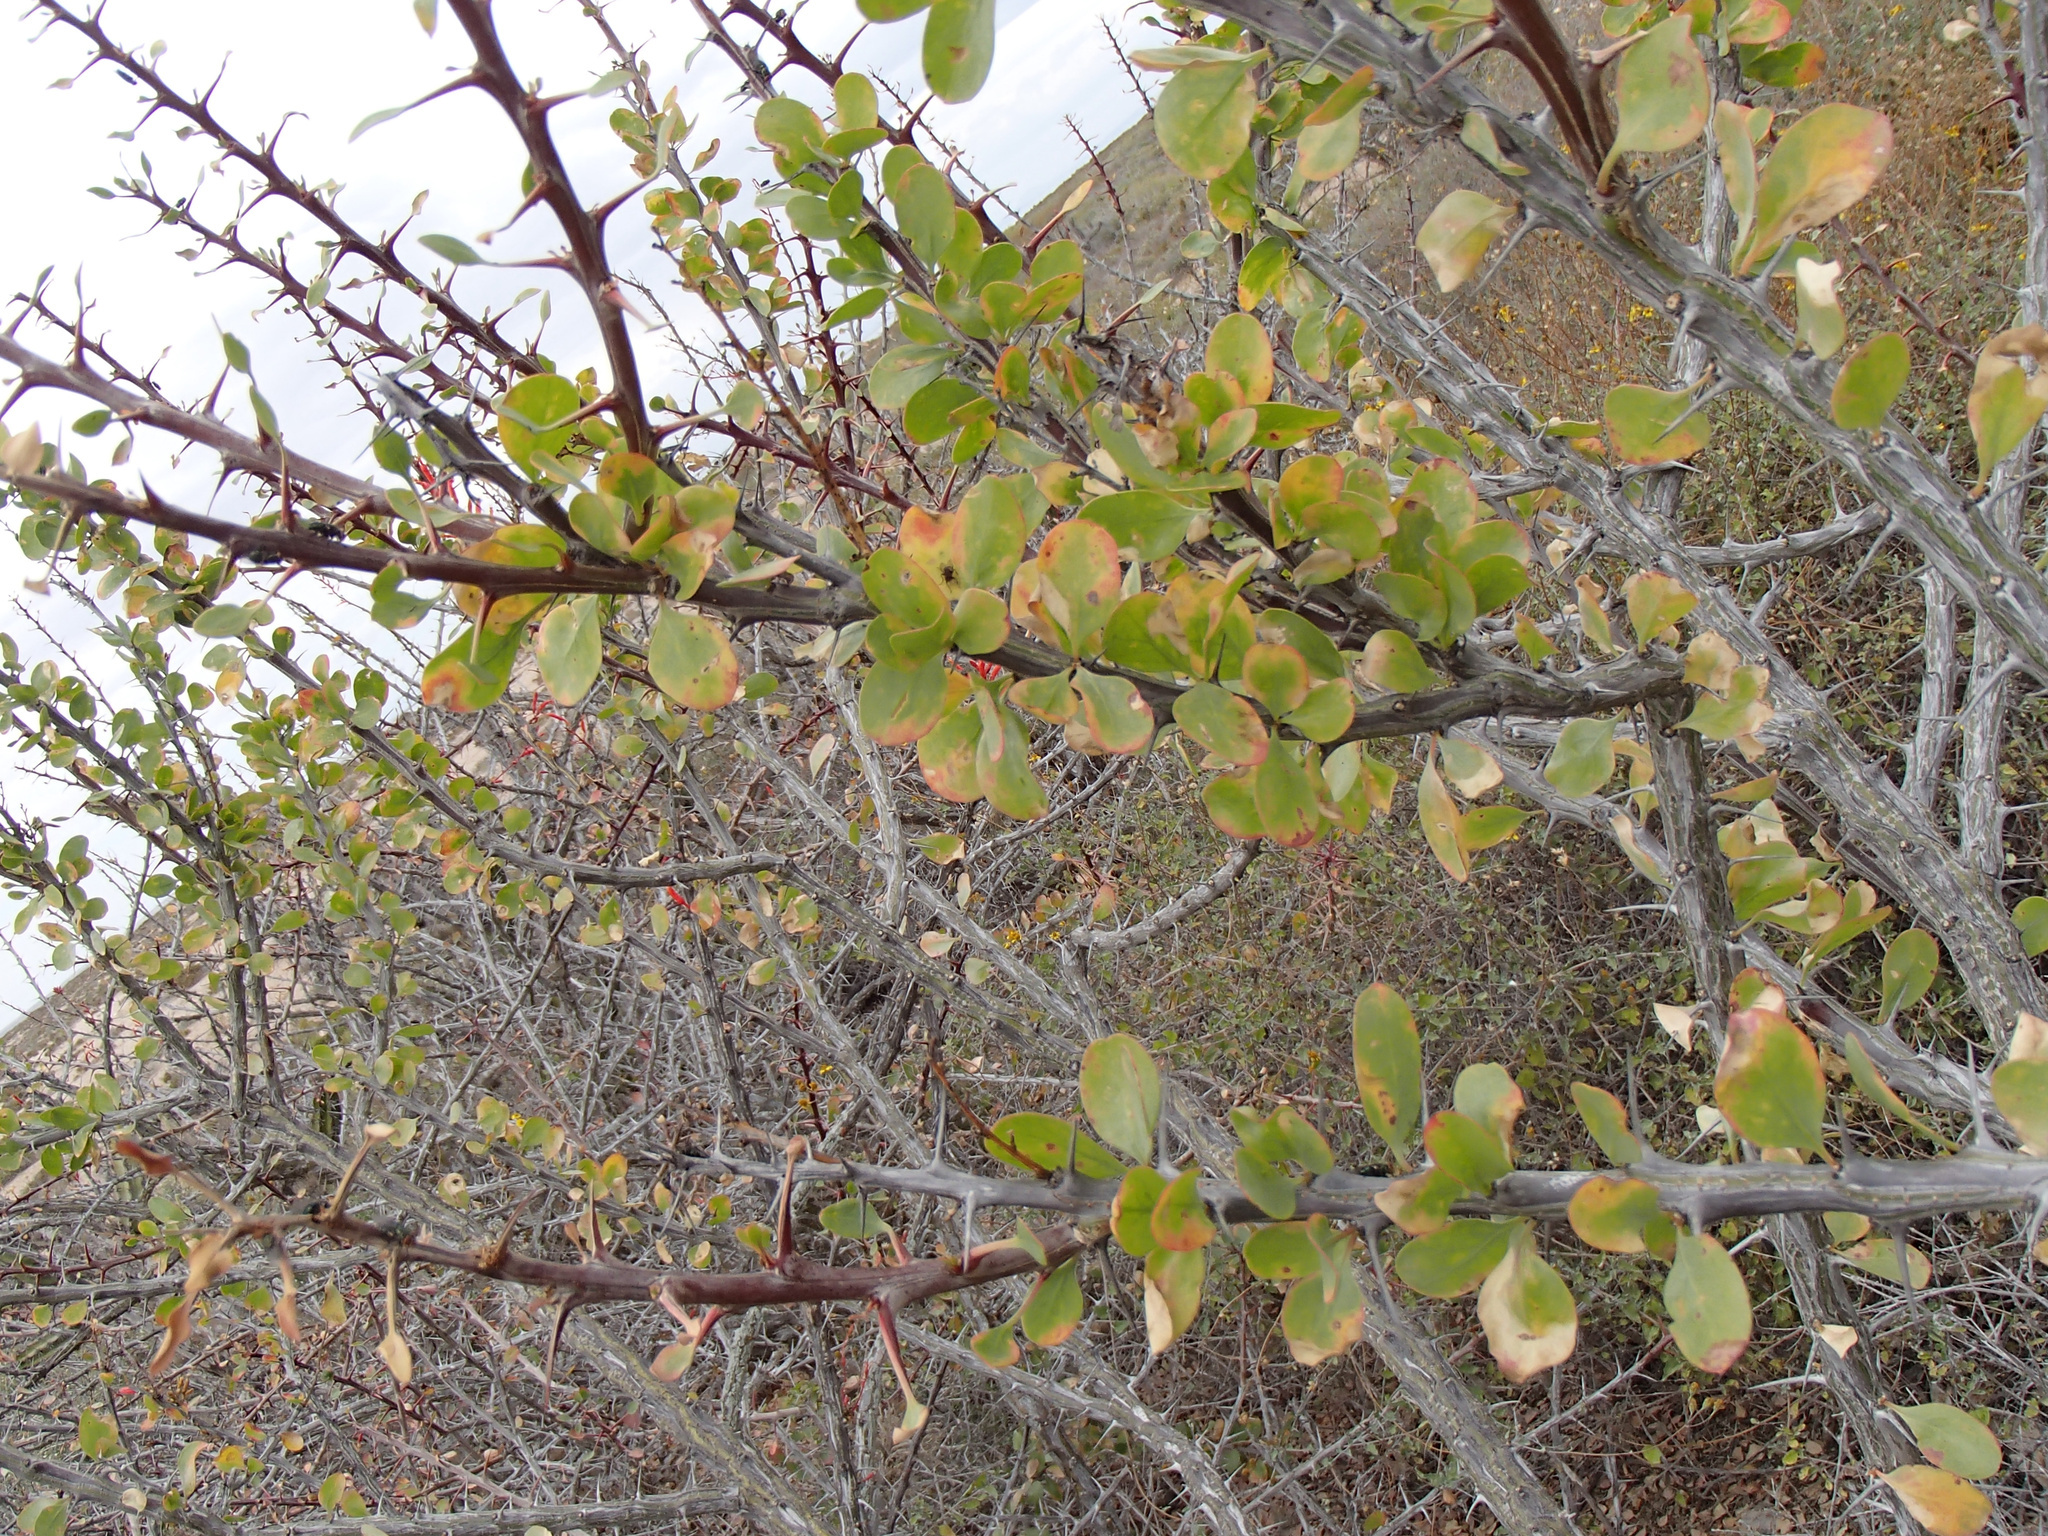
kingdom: Plantae
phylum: Tracheophyta
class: Magnoliopsida
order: Ericales
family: Fouquieriaceae
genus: Fouquieria
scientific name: Fouquieria diguetii
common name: Adam's tree
